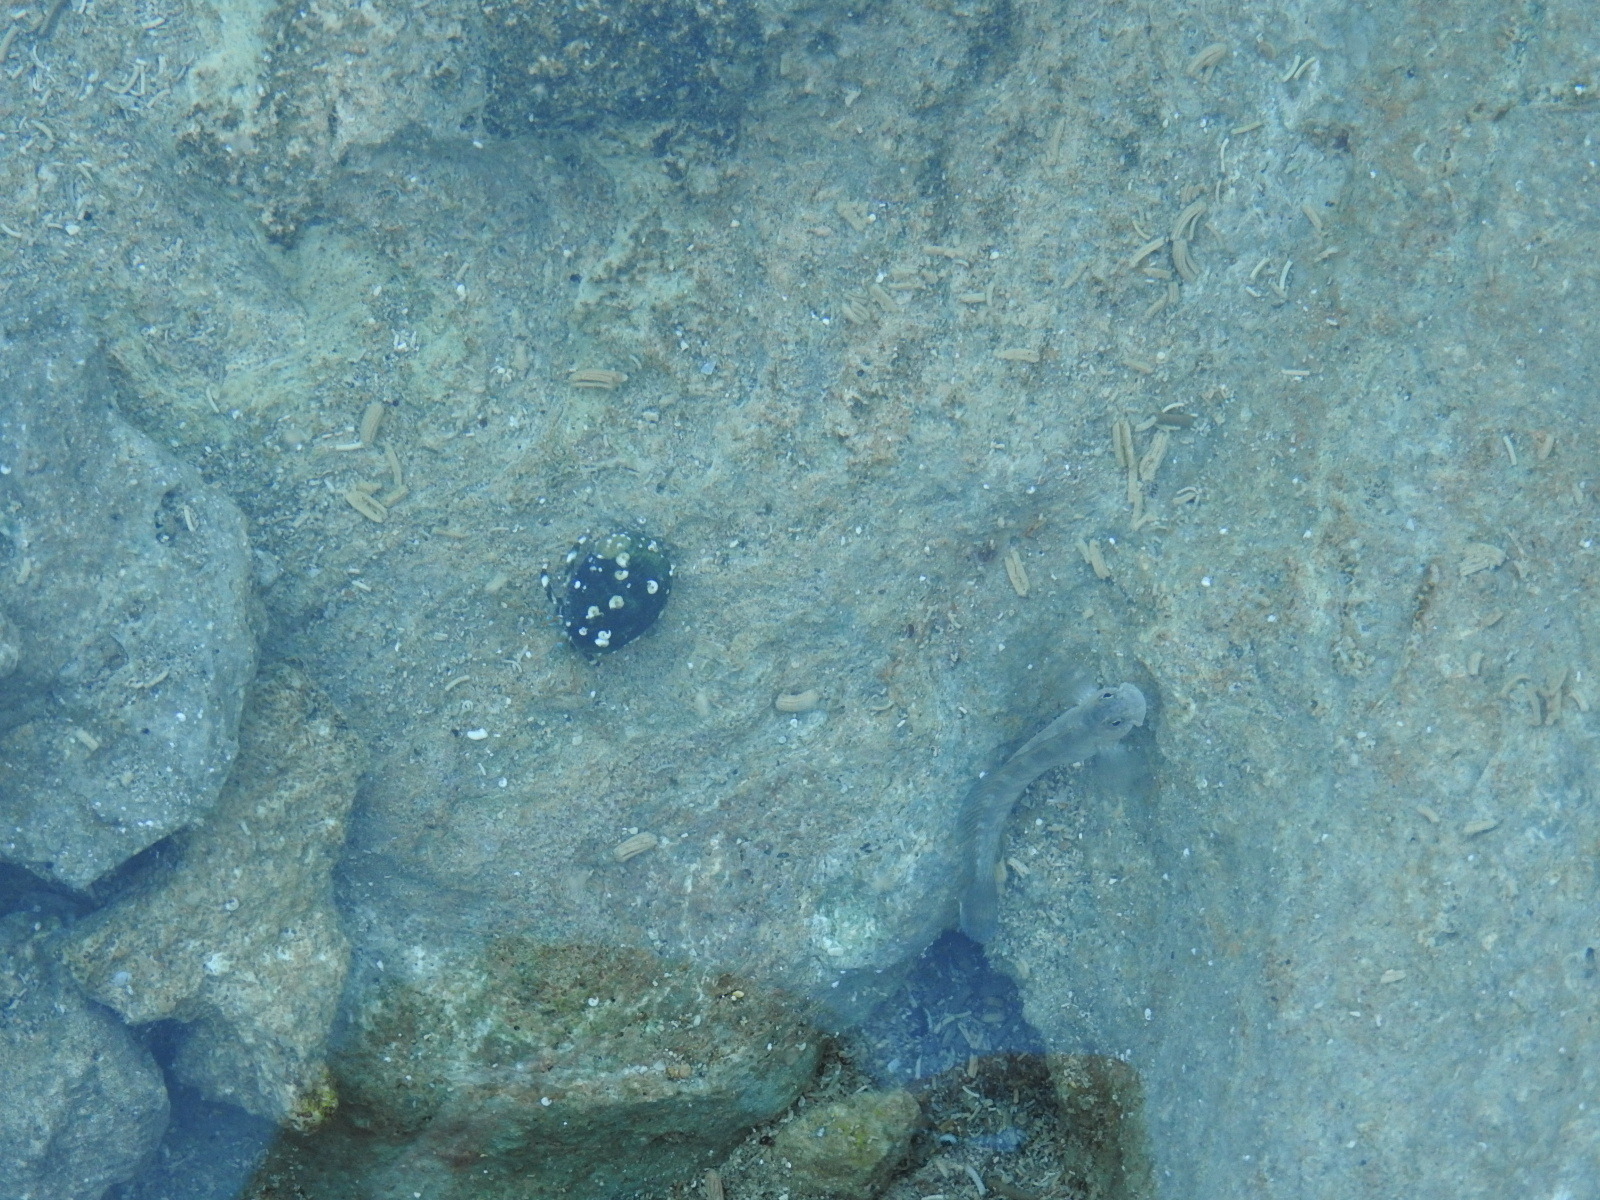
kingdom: Animalia
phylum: Arthropoda
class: Malacostraca
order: Decapoda
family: Diogenidae
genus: Calcinus
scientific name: Calcinus seurati
